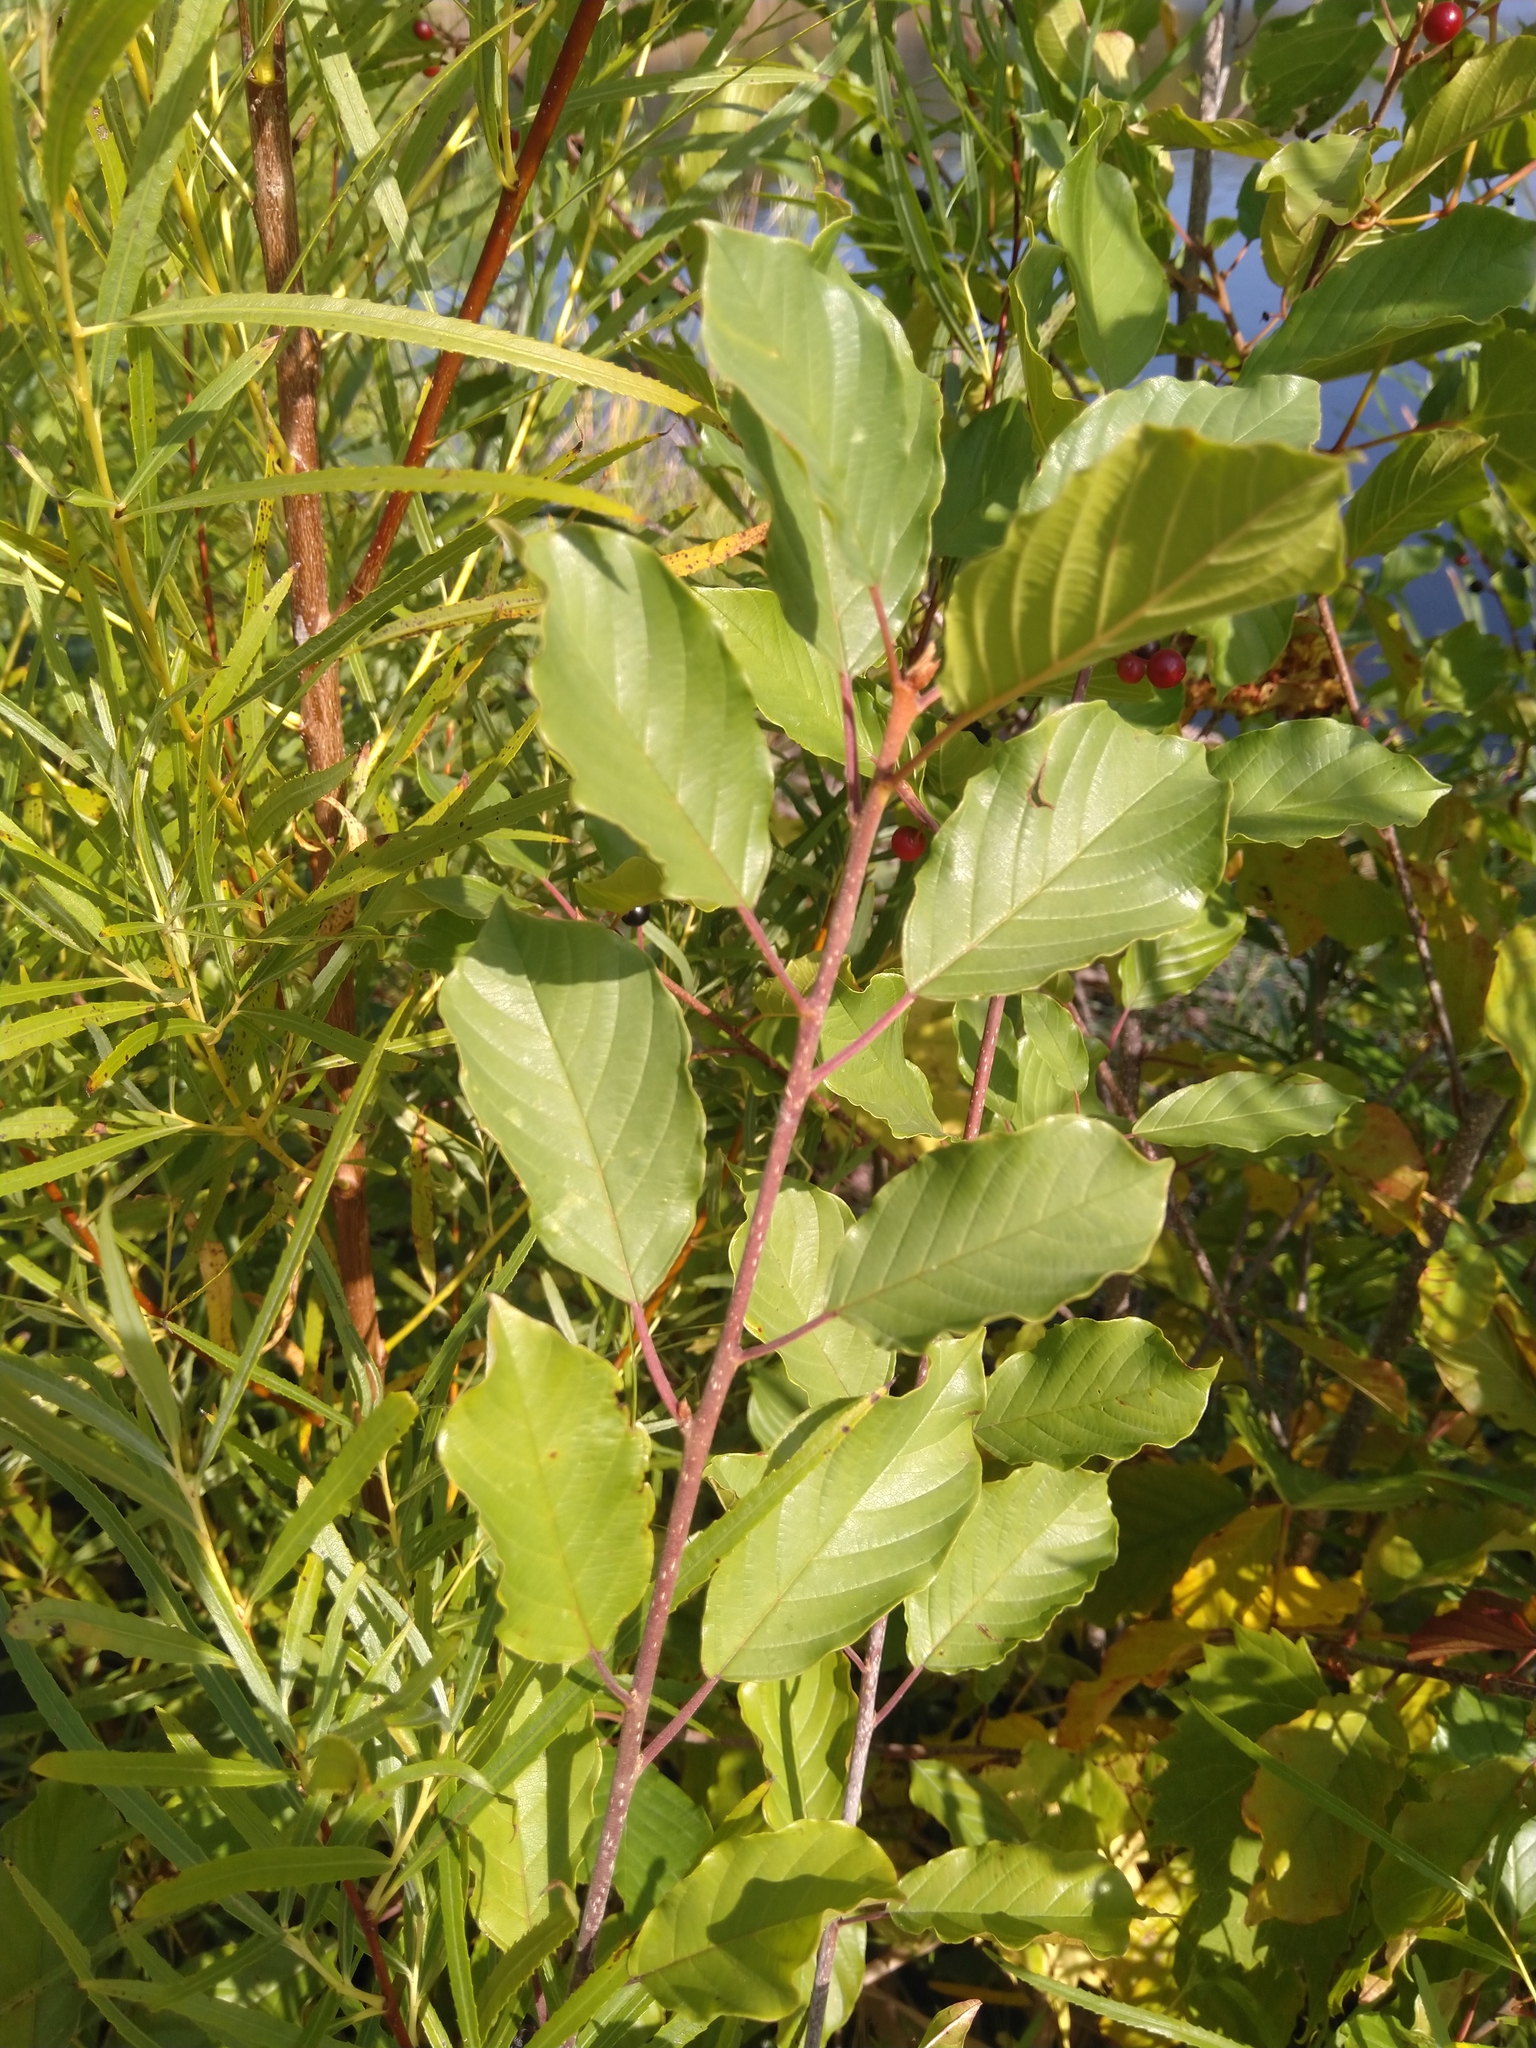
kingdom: Plantae
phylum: Tracheophyta
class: Magnoliopsida
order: Rosales
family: Rhamnaceae
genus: Frangula
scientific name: Frangula alnus
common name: Alder buckthorn
